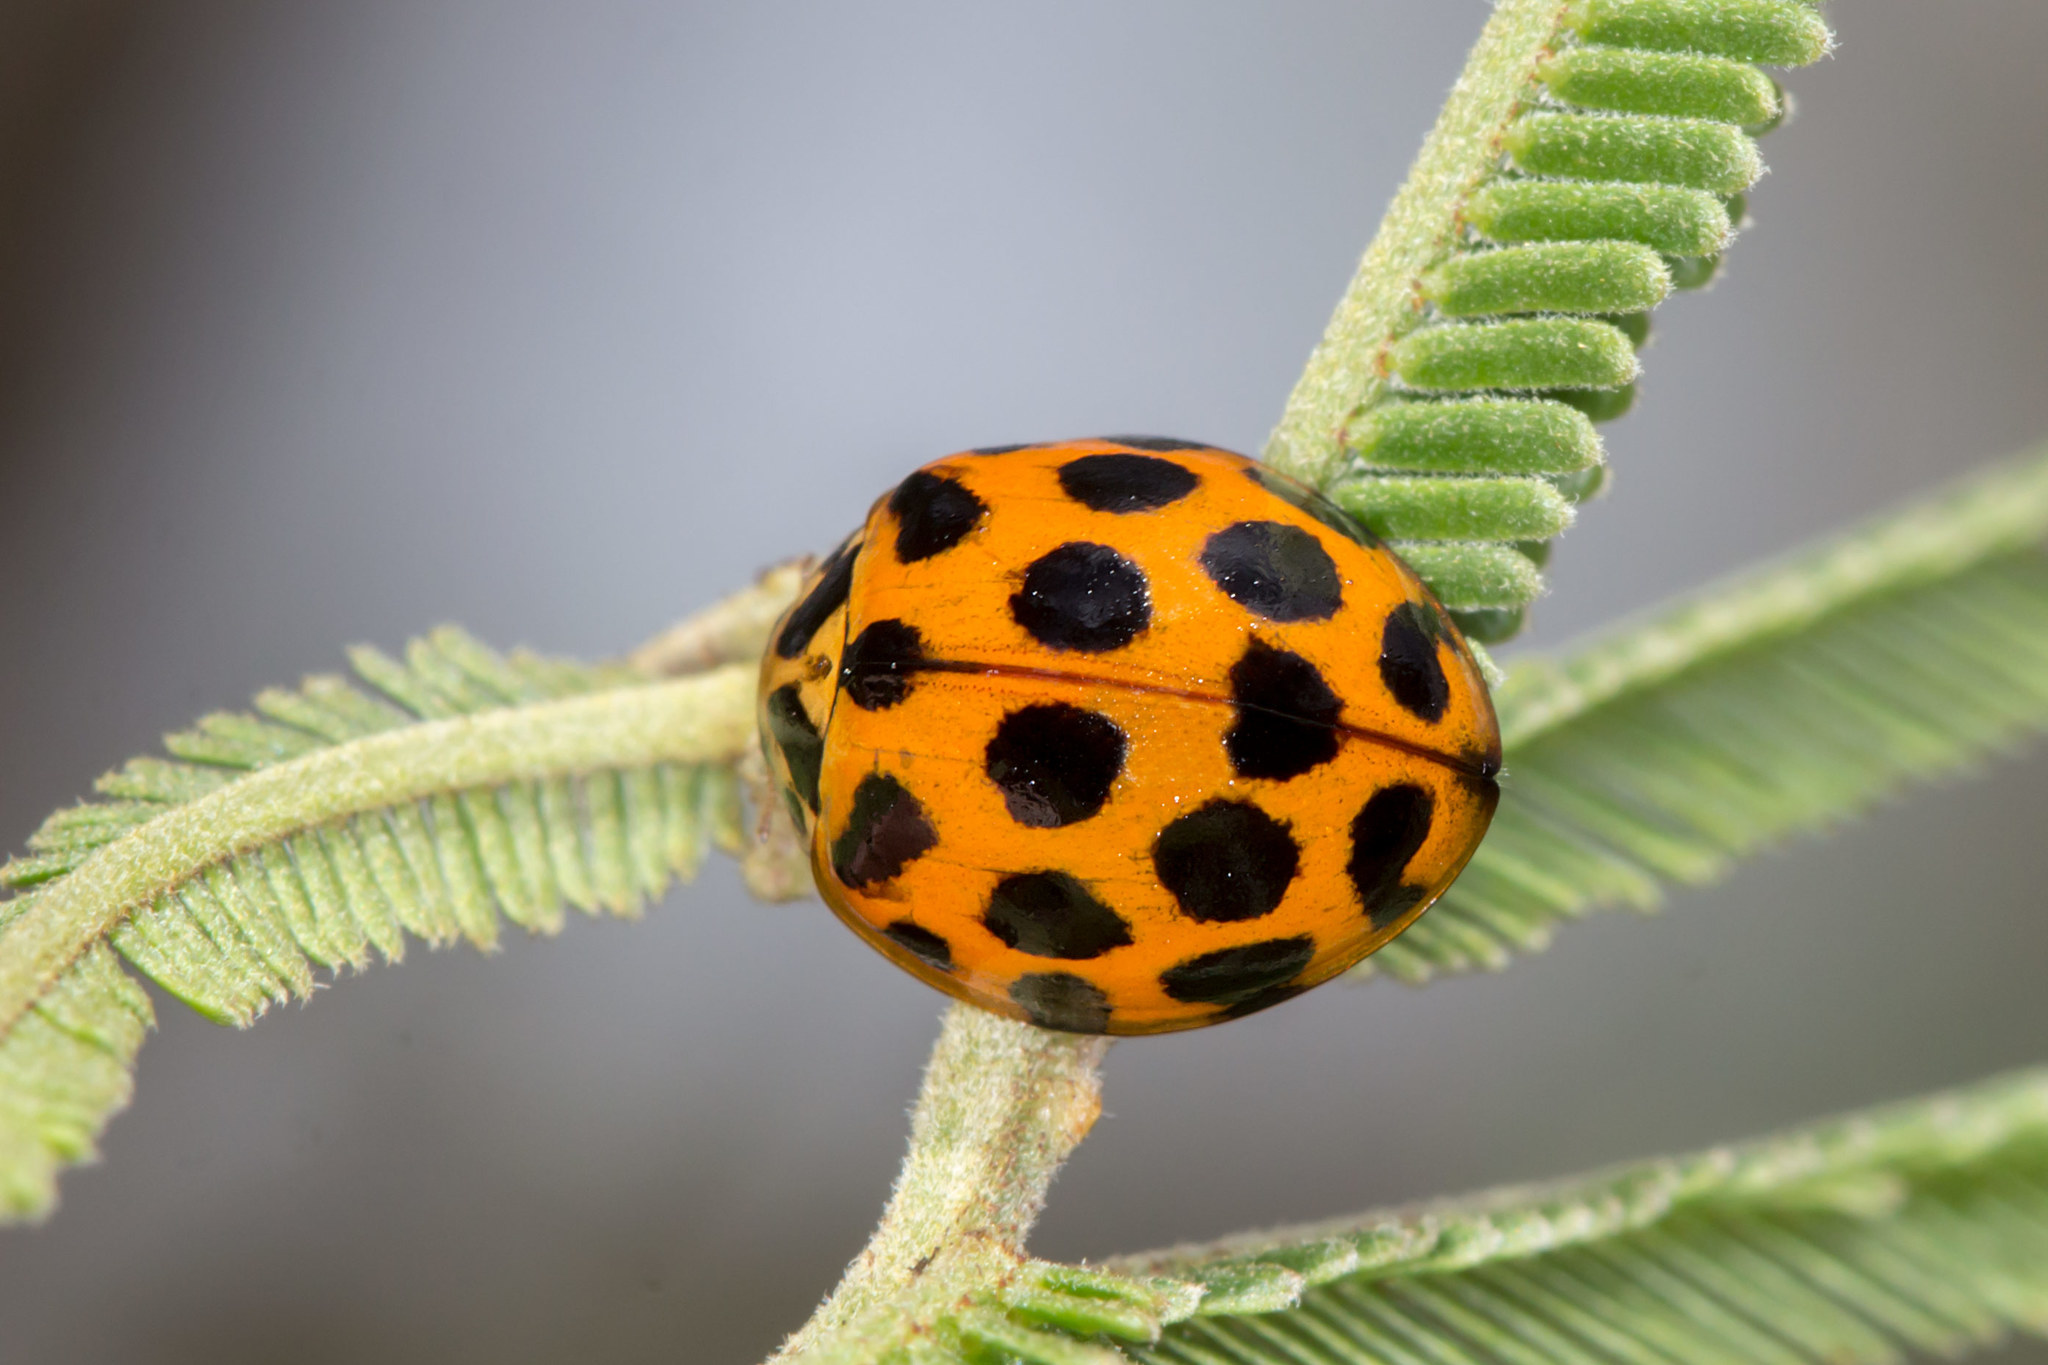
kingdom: Animalia
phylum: Arthropoda
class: Insecta
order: Coleoptera
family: Coccinellidae
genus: Harmonia
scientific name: Harmonia conformis
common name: Common spotted ladybird beetle
